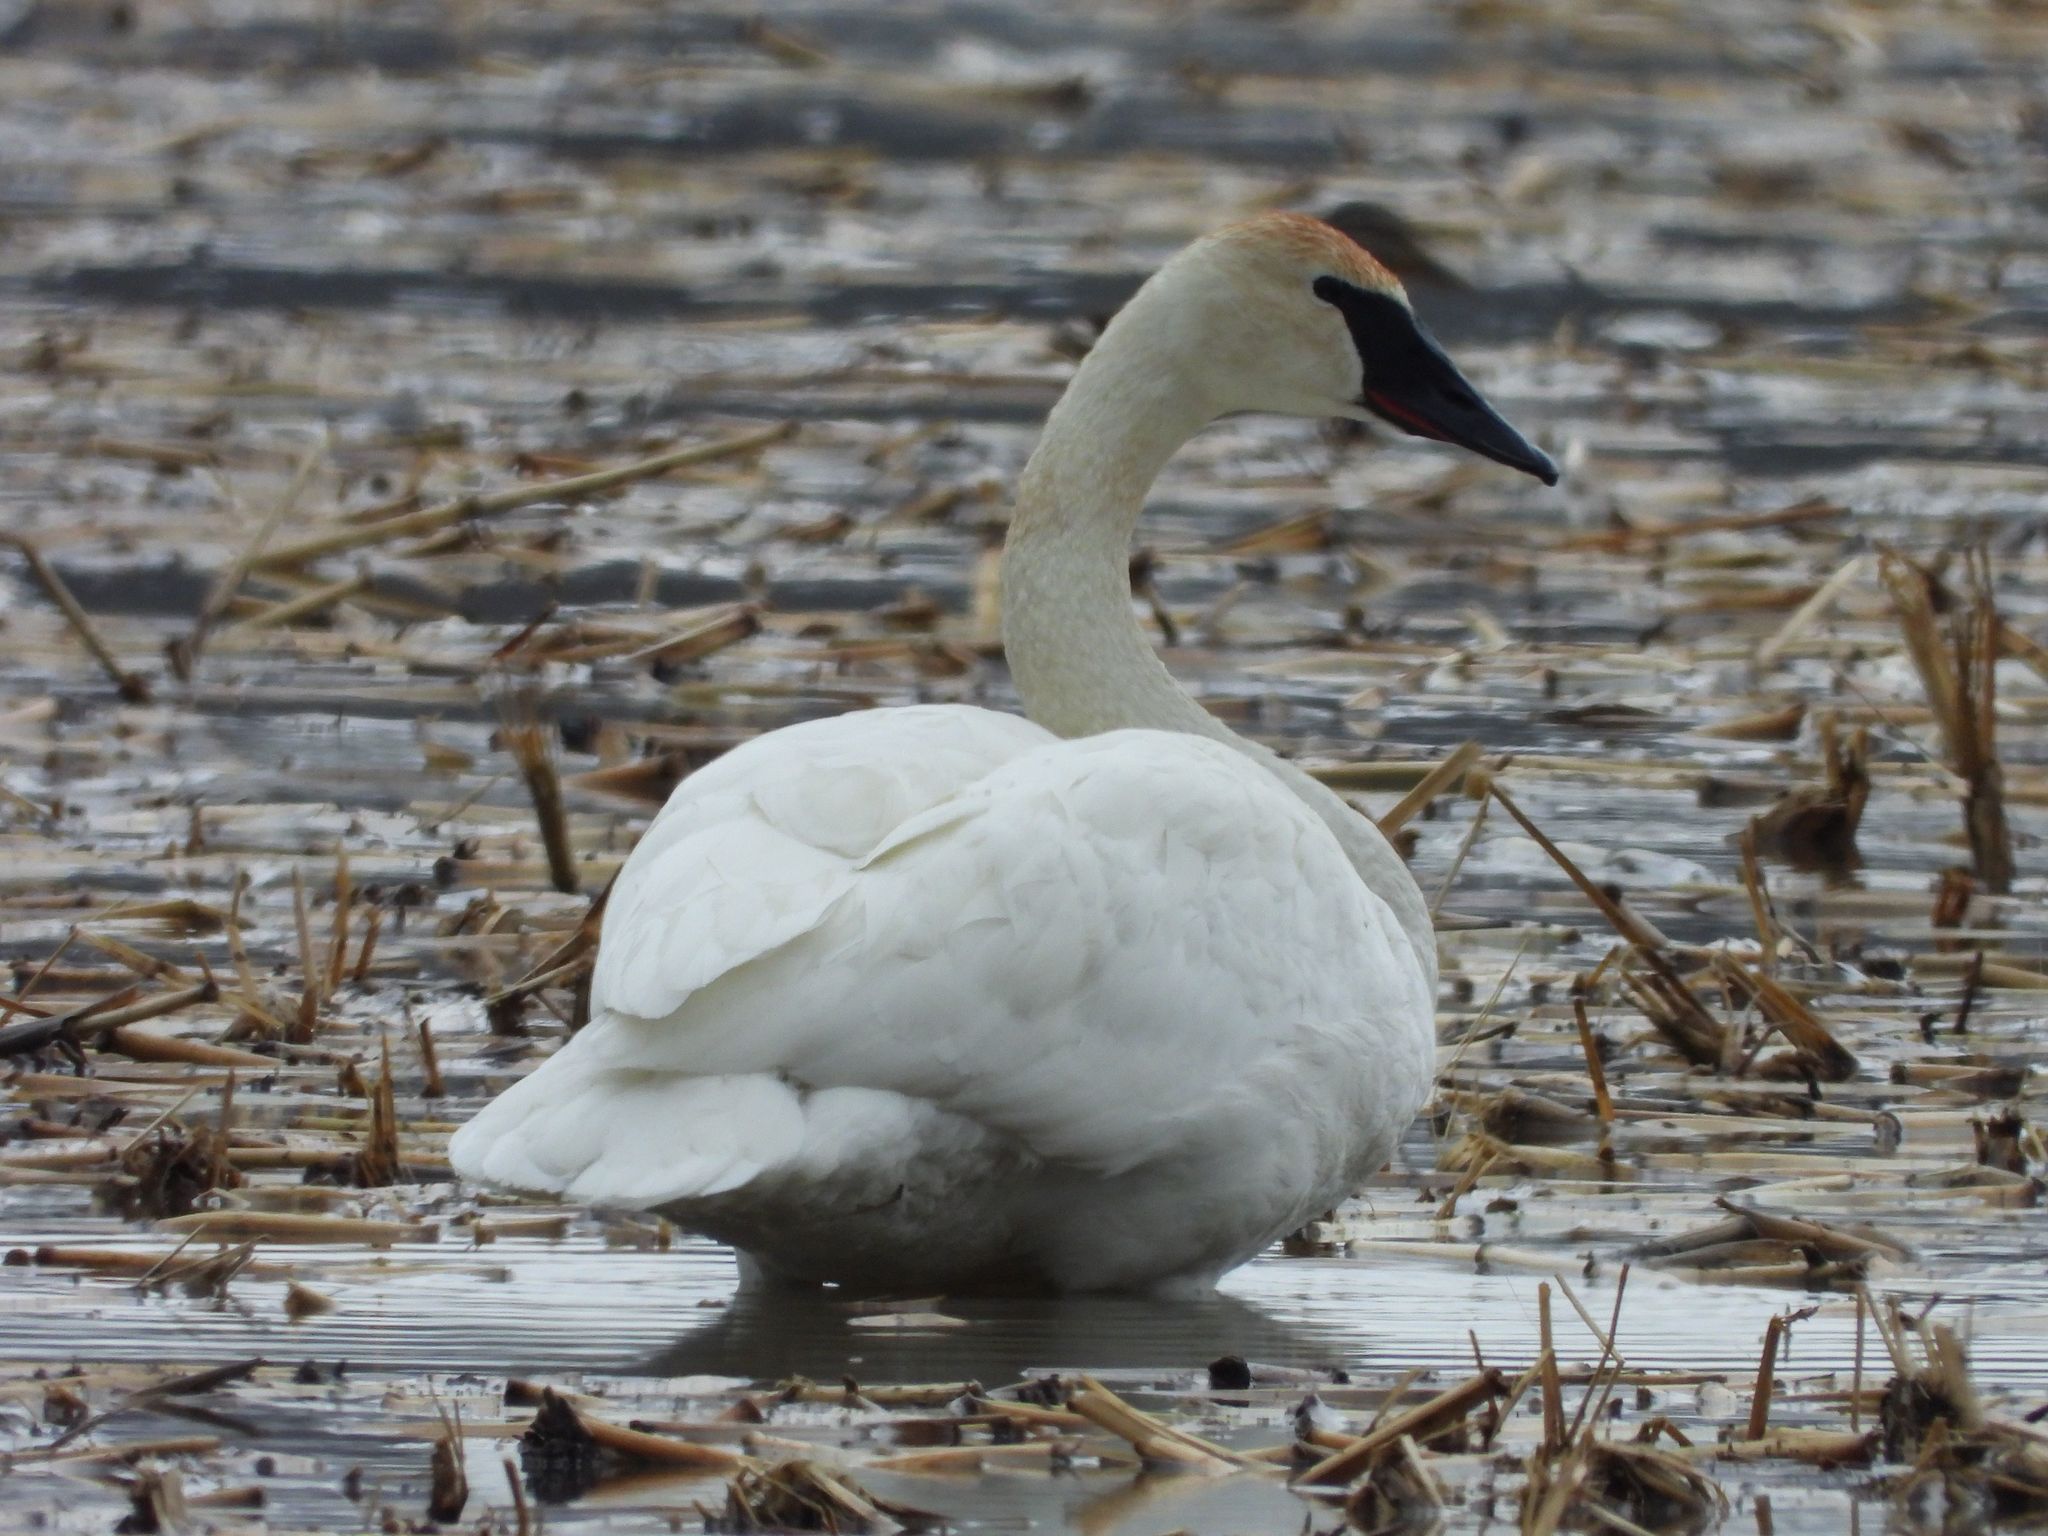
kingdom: Animalia
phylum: Chordata
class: Aves
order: Anseriformes
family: Anatidae
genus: Cygnus
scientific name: Cygnus buccinator
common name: Trumpeter swan
